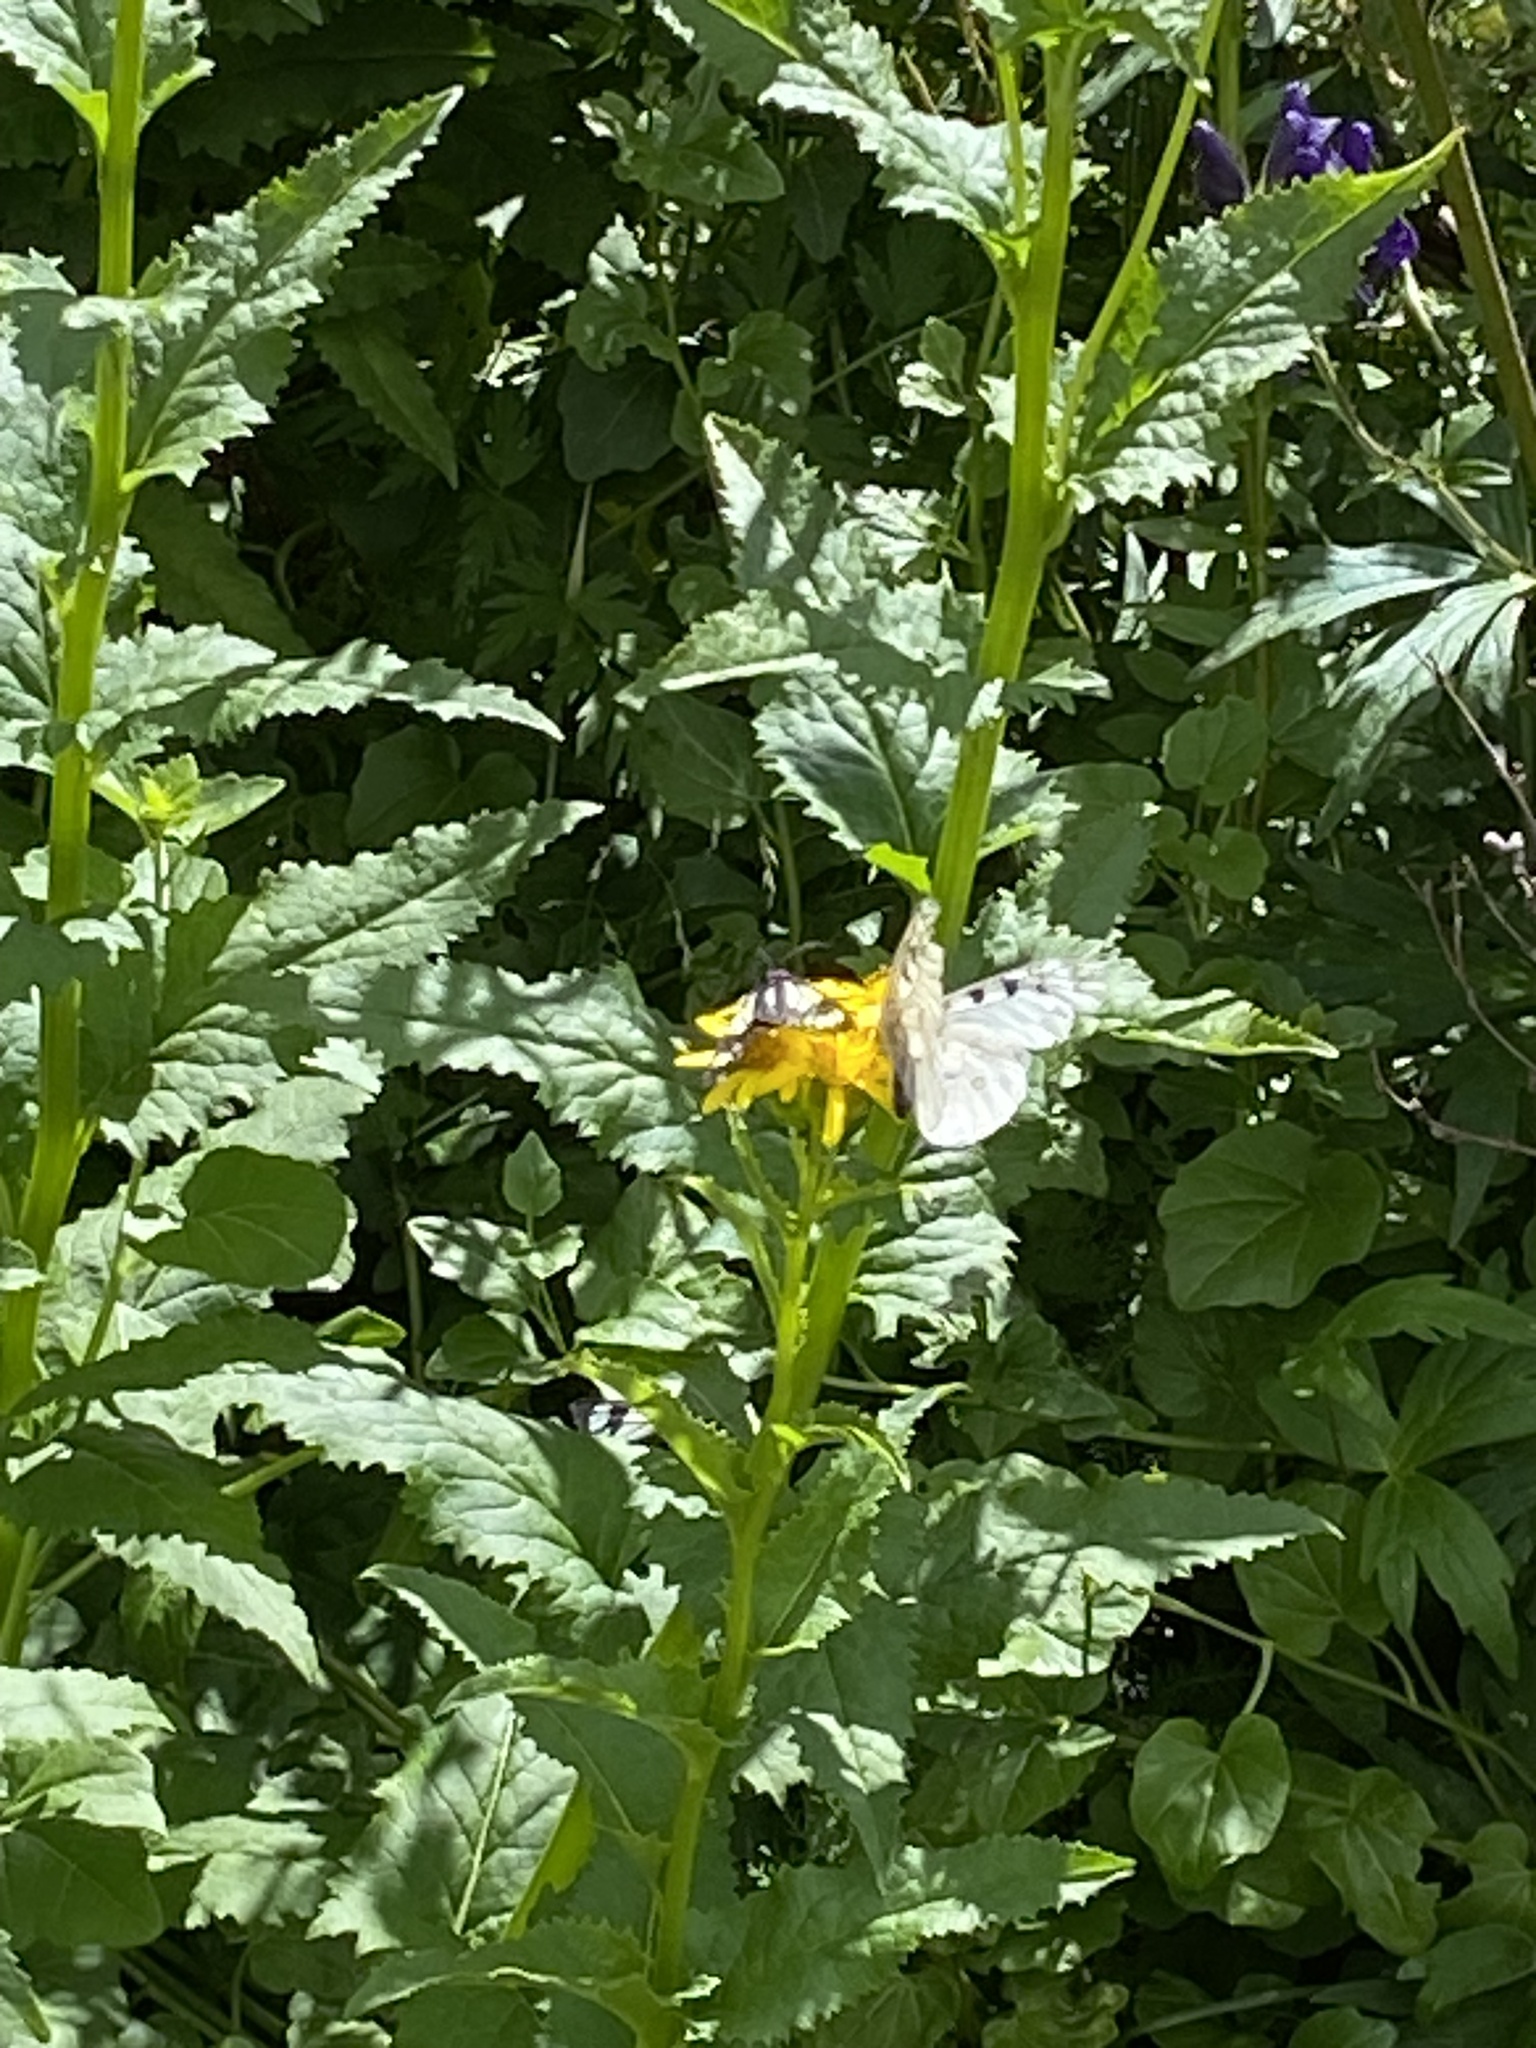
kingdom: Animalia
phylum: Arthropoda
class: Insecta
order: Lepidoptera
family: Papilionidae
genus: Parnassius
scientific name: Parnassius smintheus
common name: Mountain parnassian
